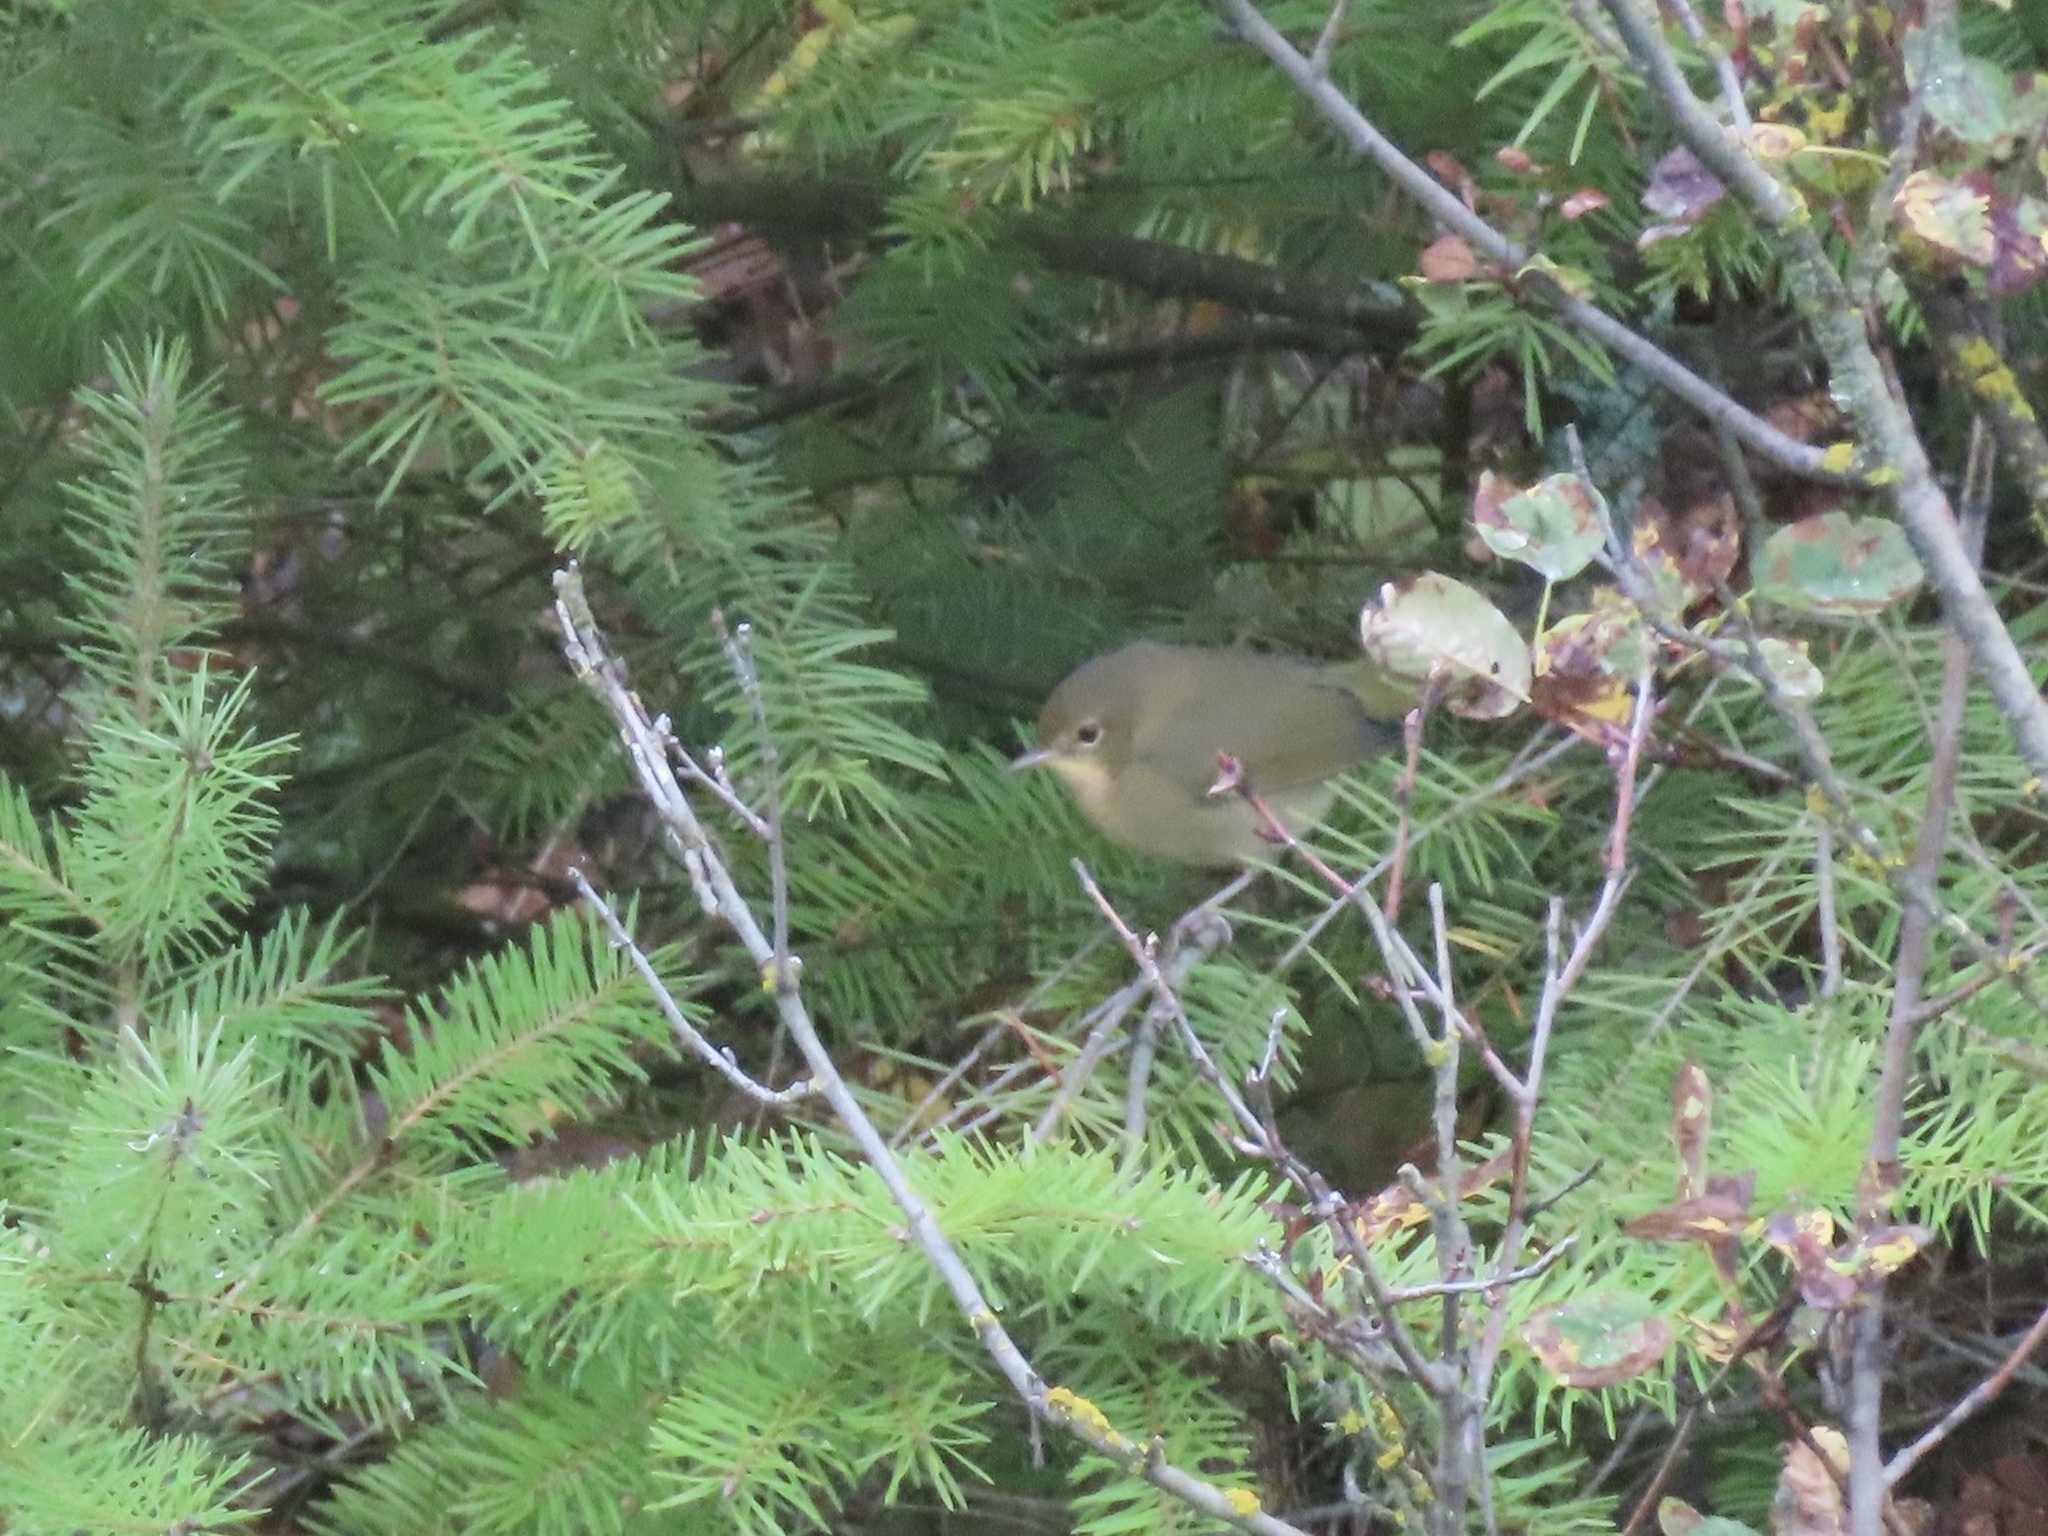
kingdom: Animalia
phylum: Chordata
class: Aves
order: Passeriformes
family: Parulidae
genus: Geothlypis
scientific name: Geothlypis trichas
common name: Common yellowthroat
